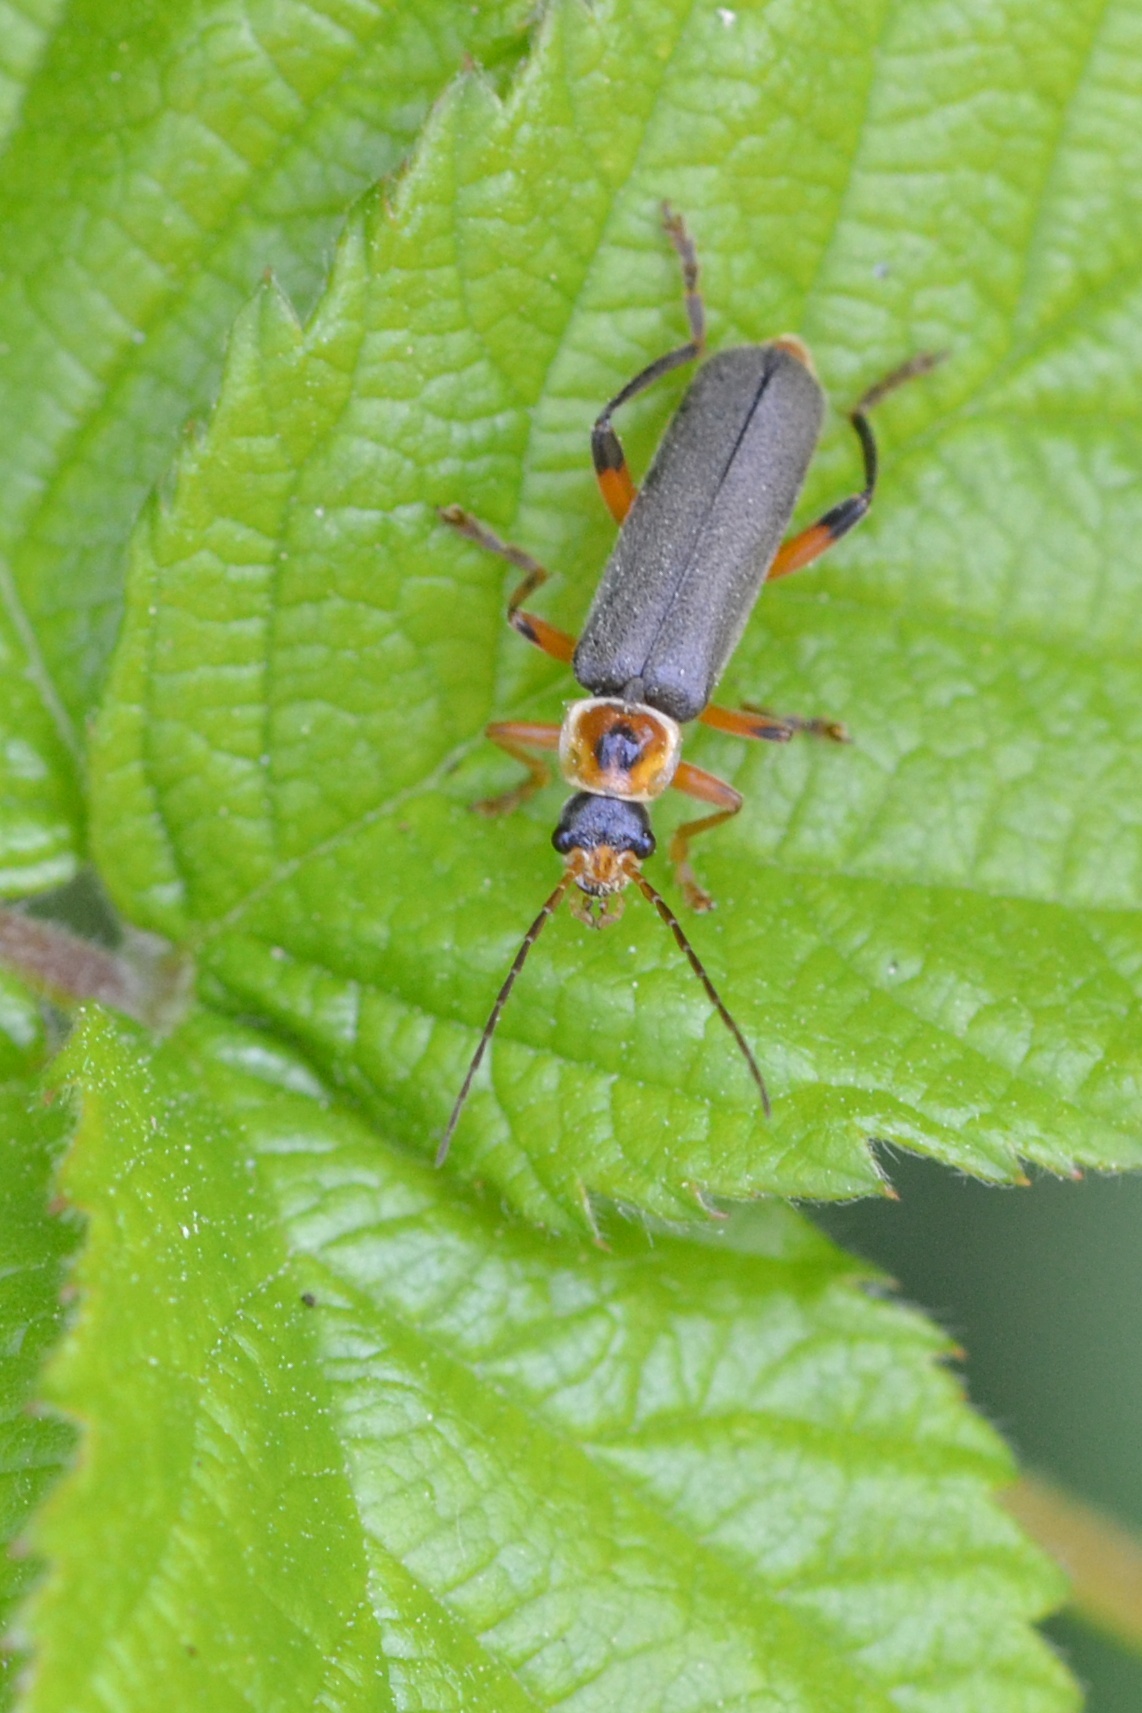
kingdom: Animalia
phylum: Arthropoda
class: Insecta
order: Coleoptera
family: Cantharidae
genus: Cantharis
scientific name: Cantharis nigricans
